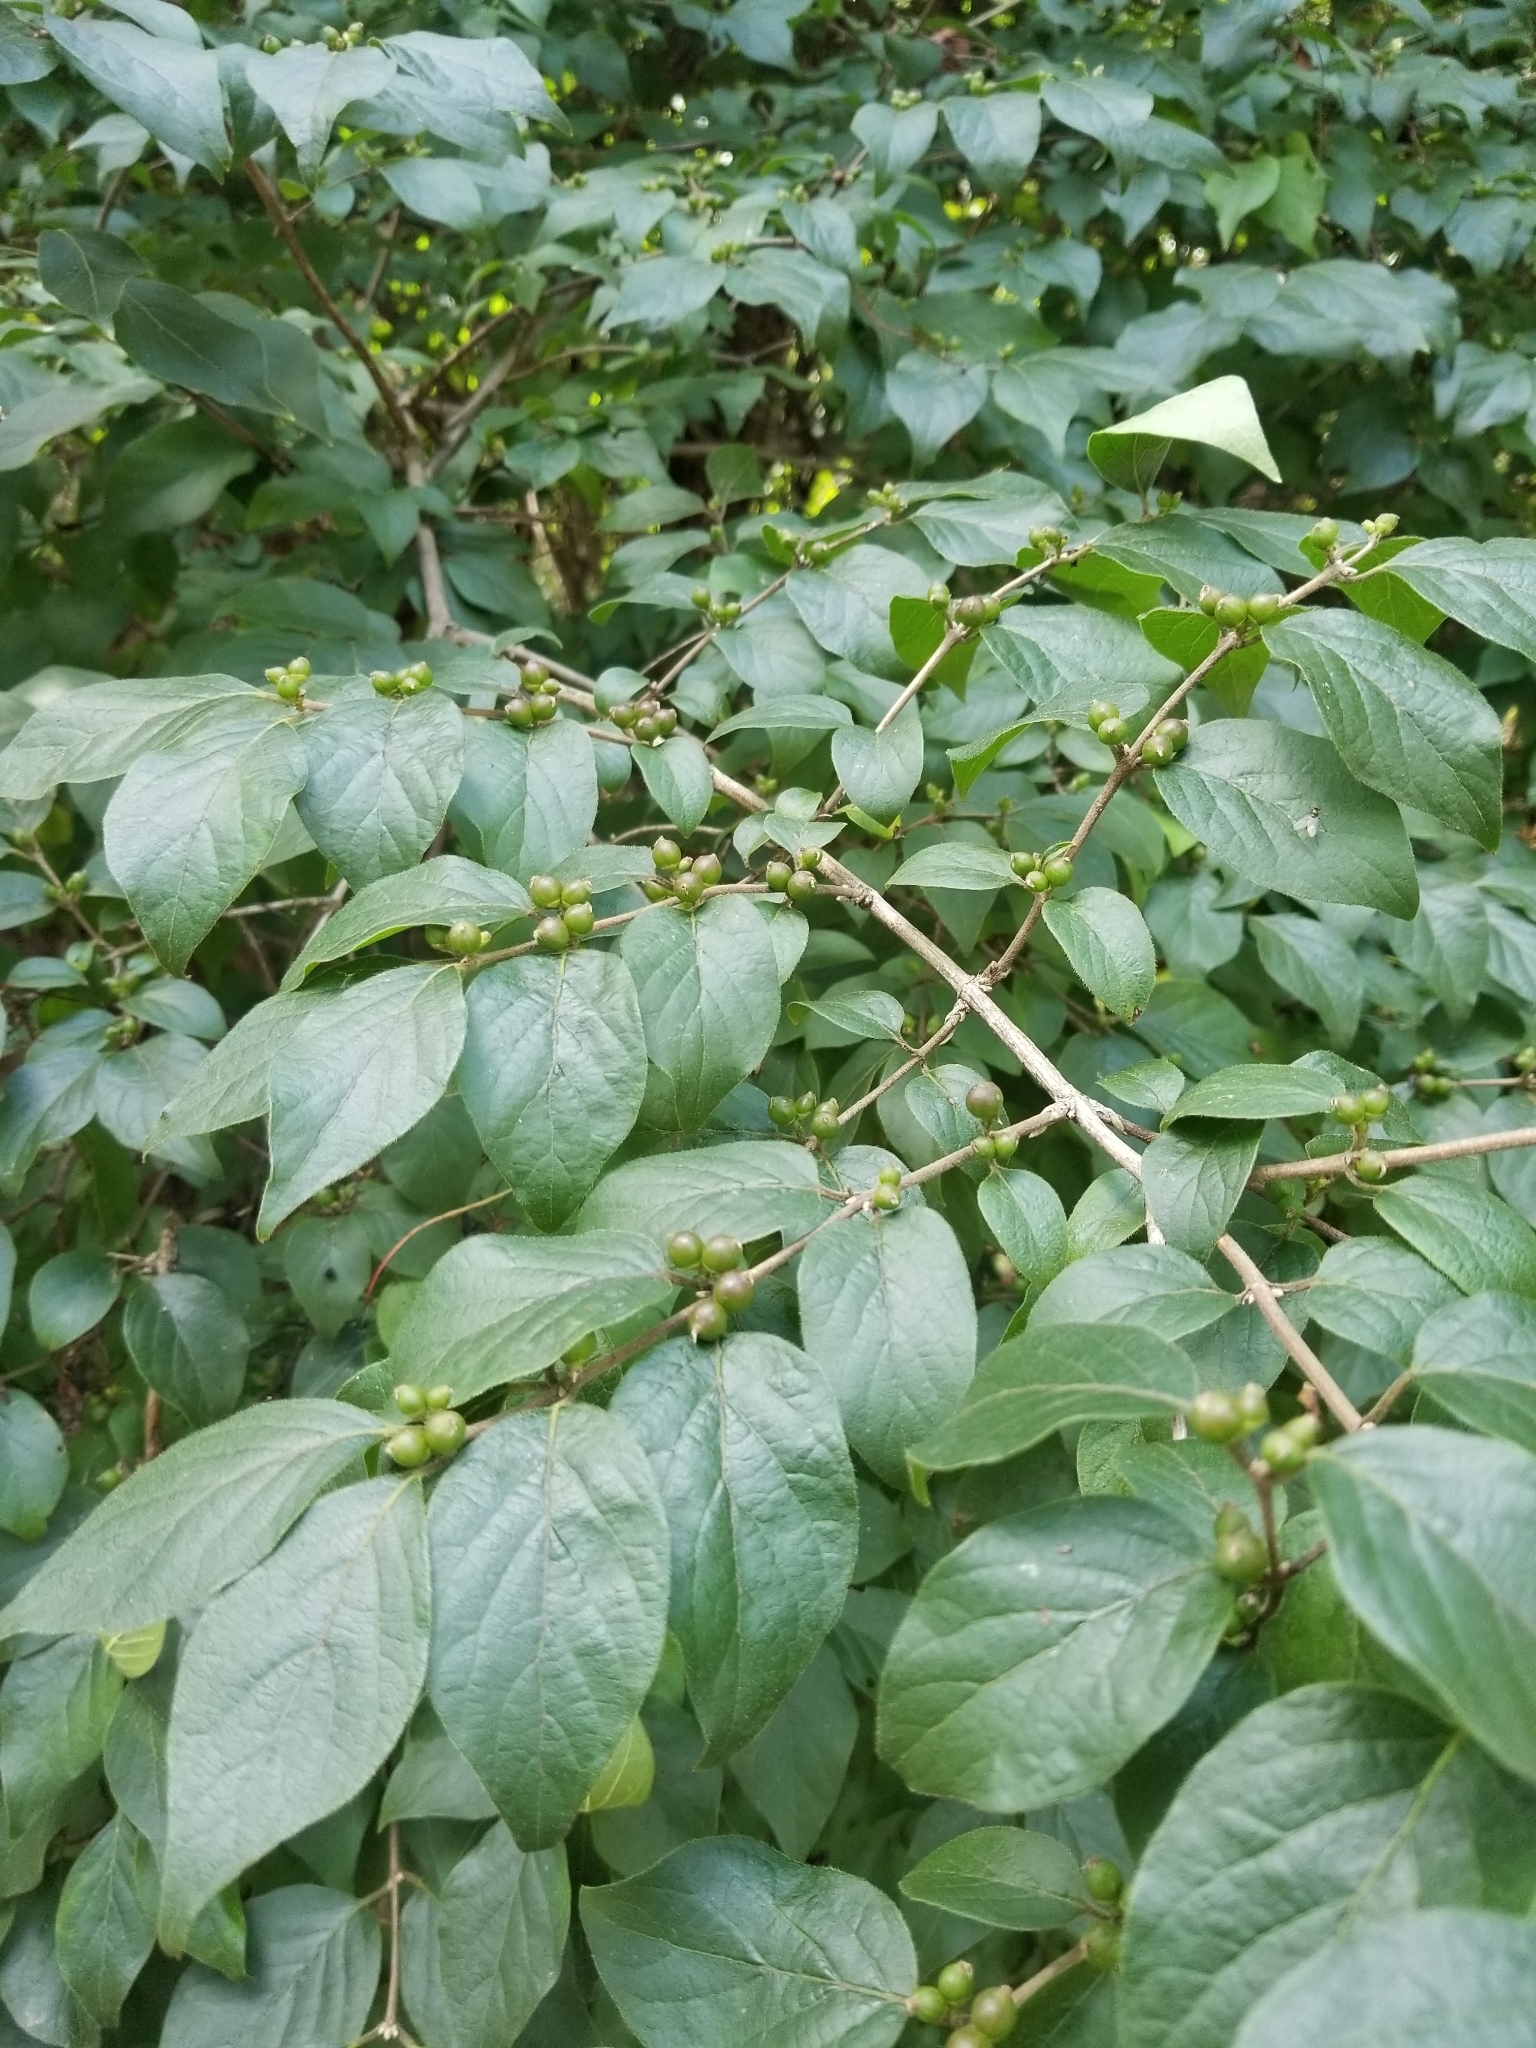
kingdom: Plantae
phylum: Tracheophyta
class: Magnoliopsida
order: Dipsacales
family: Caprifoliaceae
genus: Lonicera
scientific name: Lonicera maackii
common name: Amur honeysuckle
